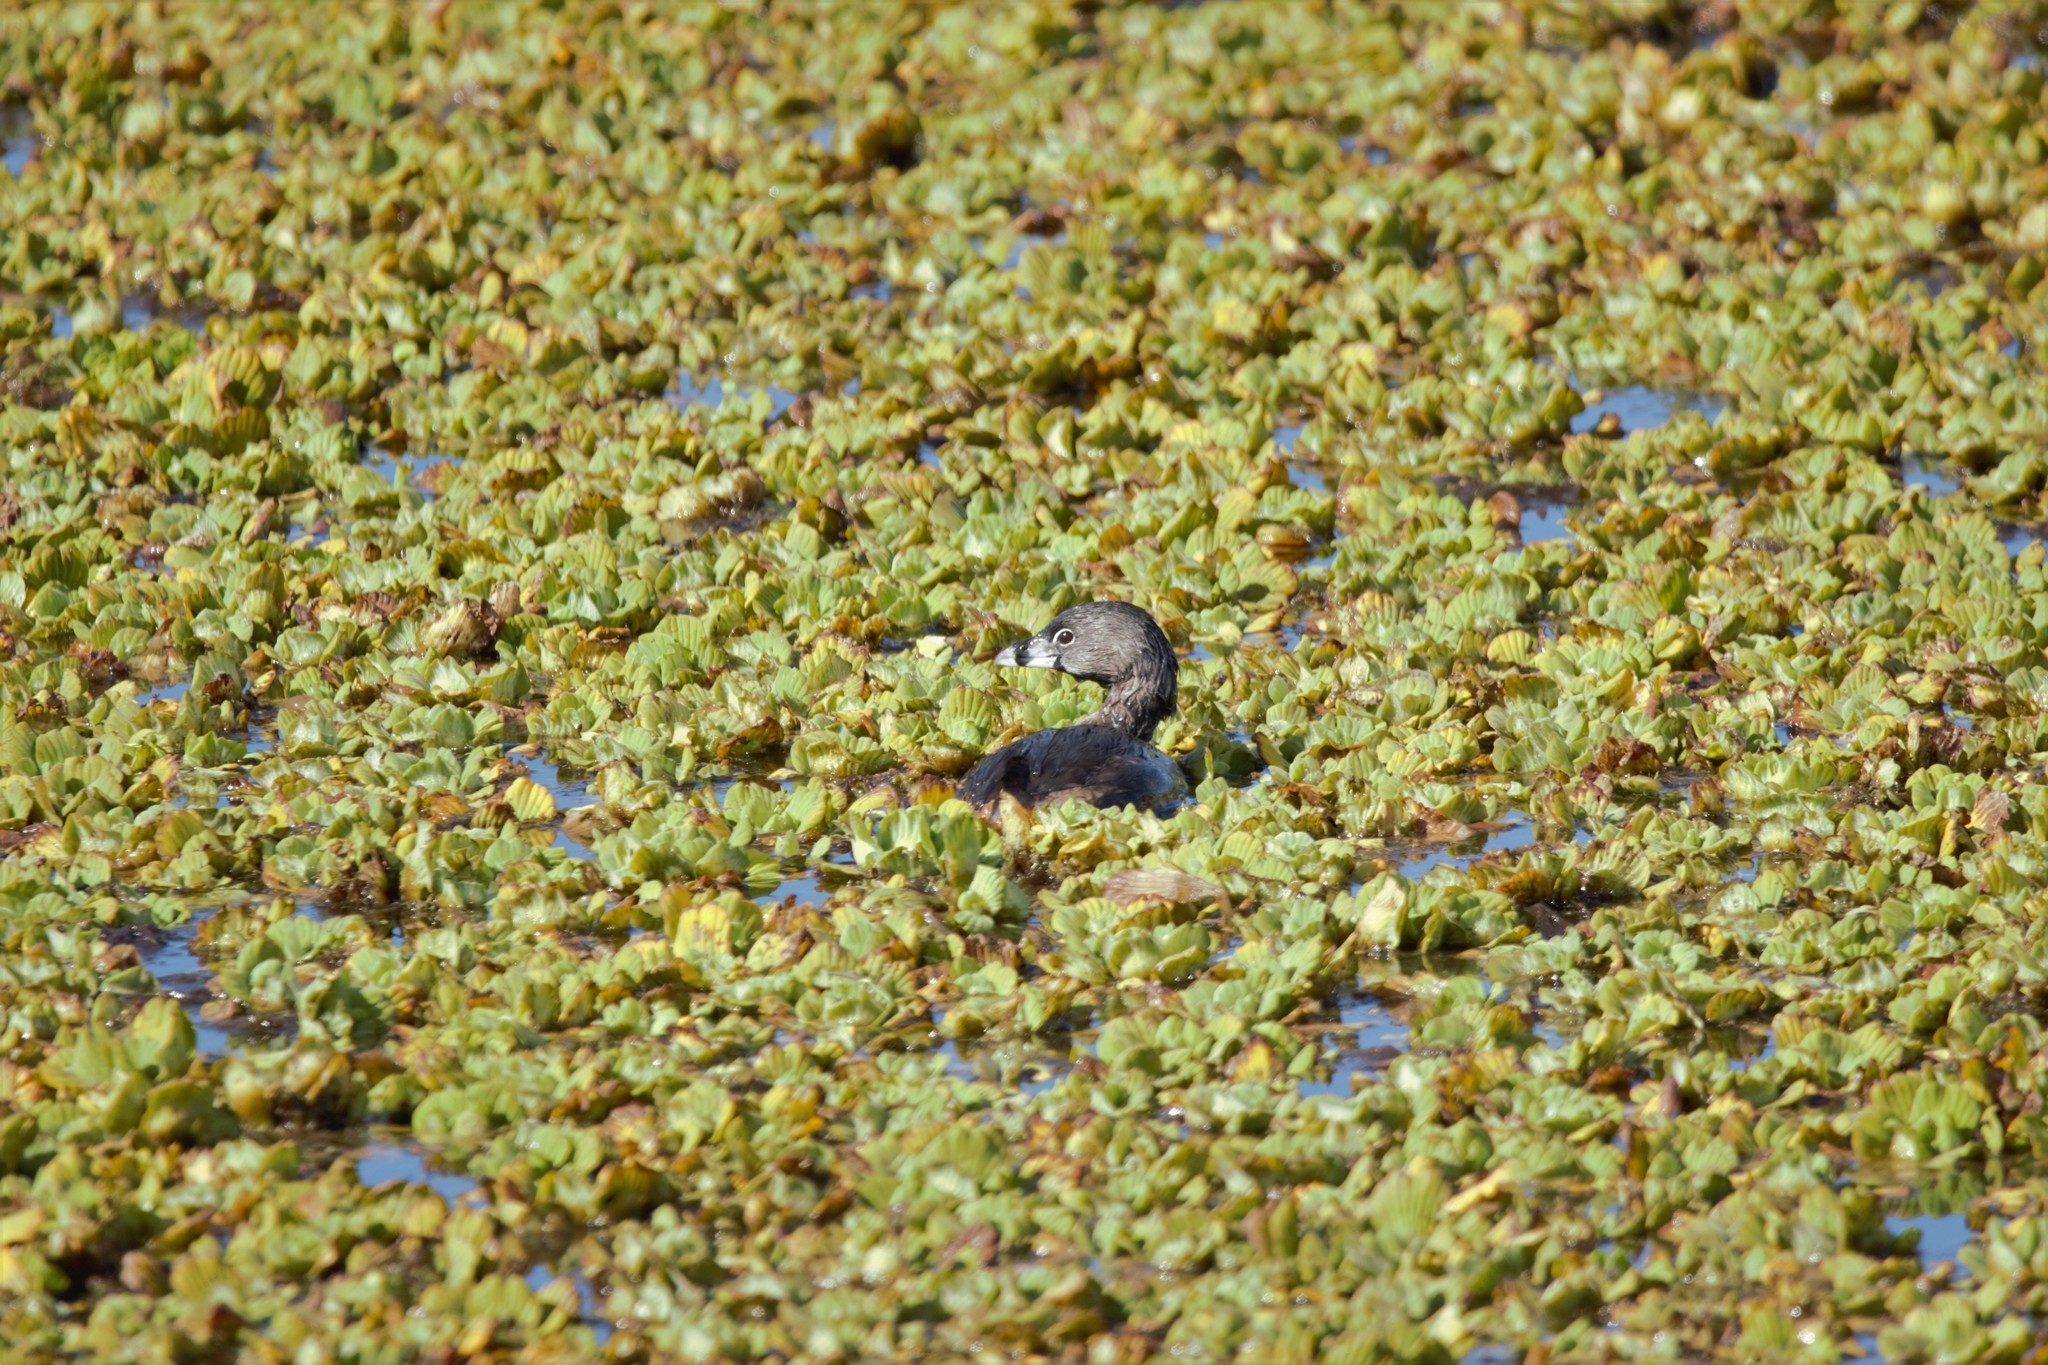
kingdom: Animalia
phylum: Chordata
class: Aves
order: Podicipediformes
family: Podicipedidae
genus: Podilymbus
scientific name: Podilymbus podiceps
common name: Pied-billed grebe
